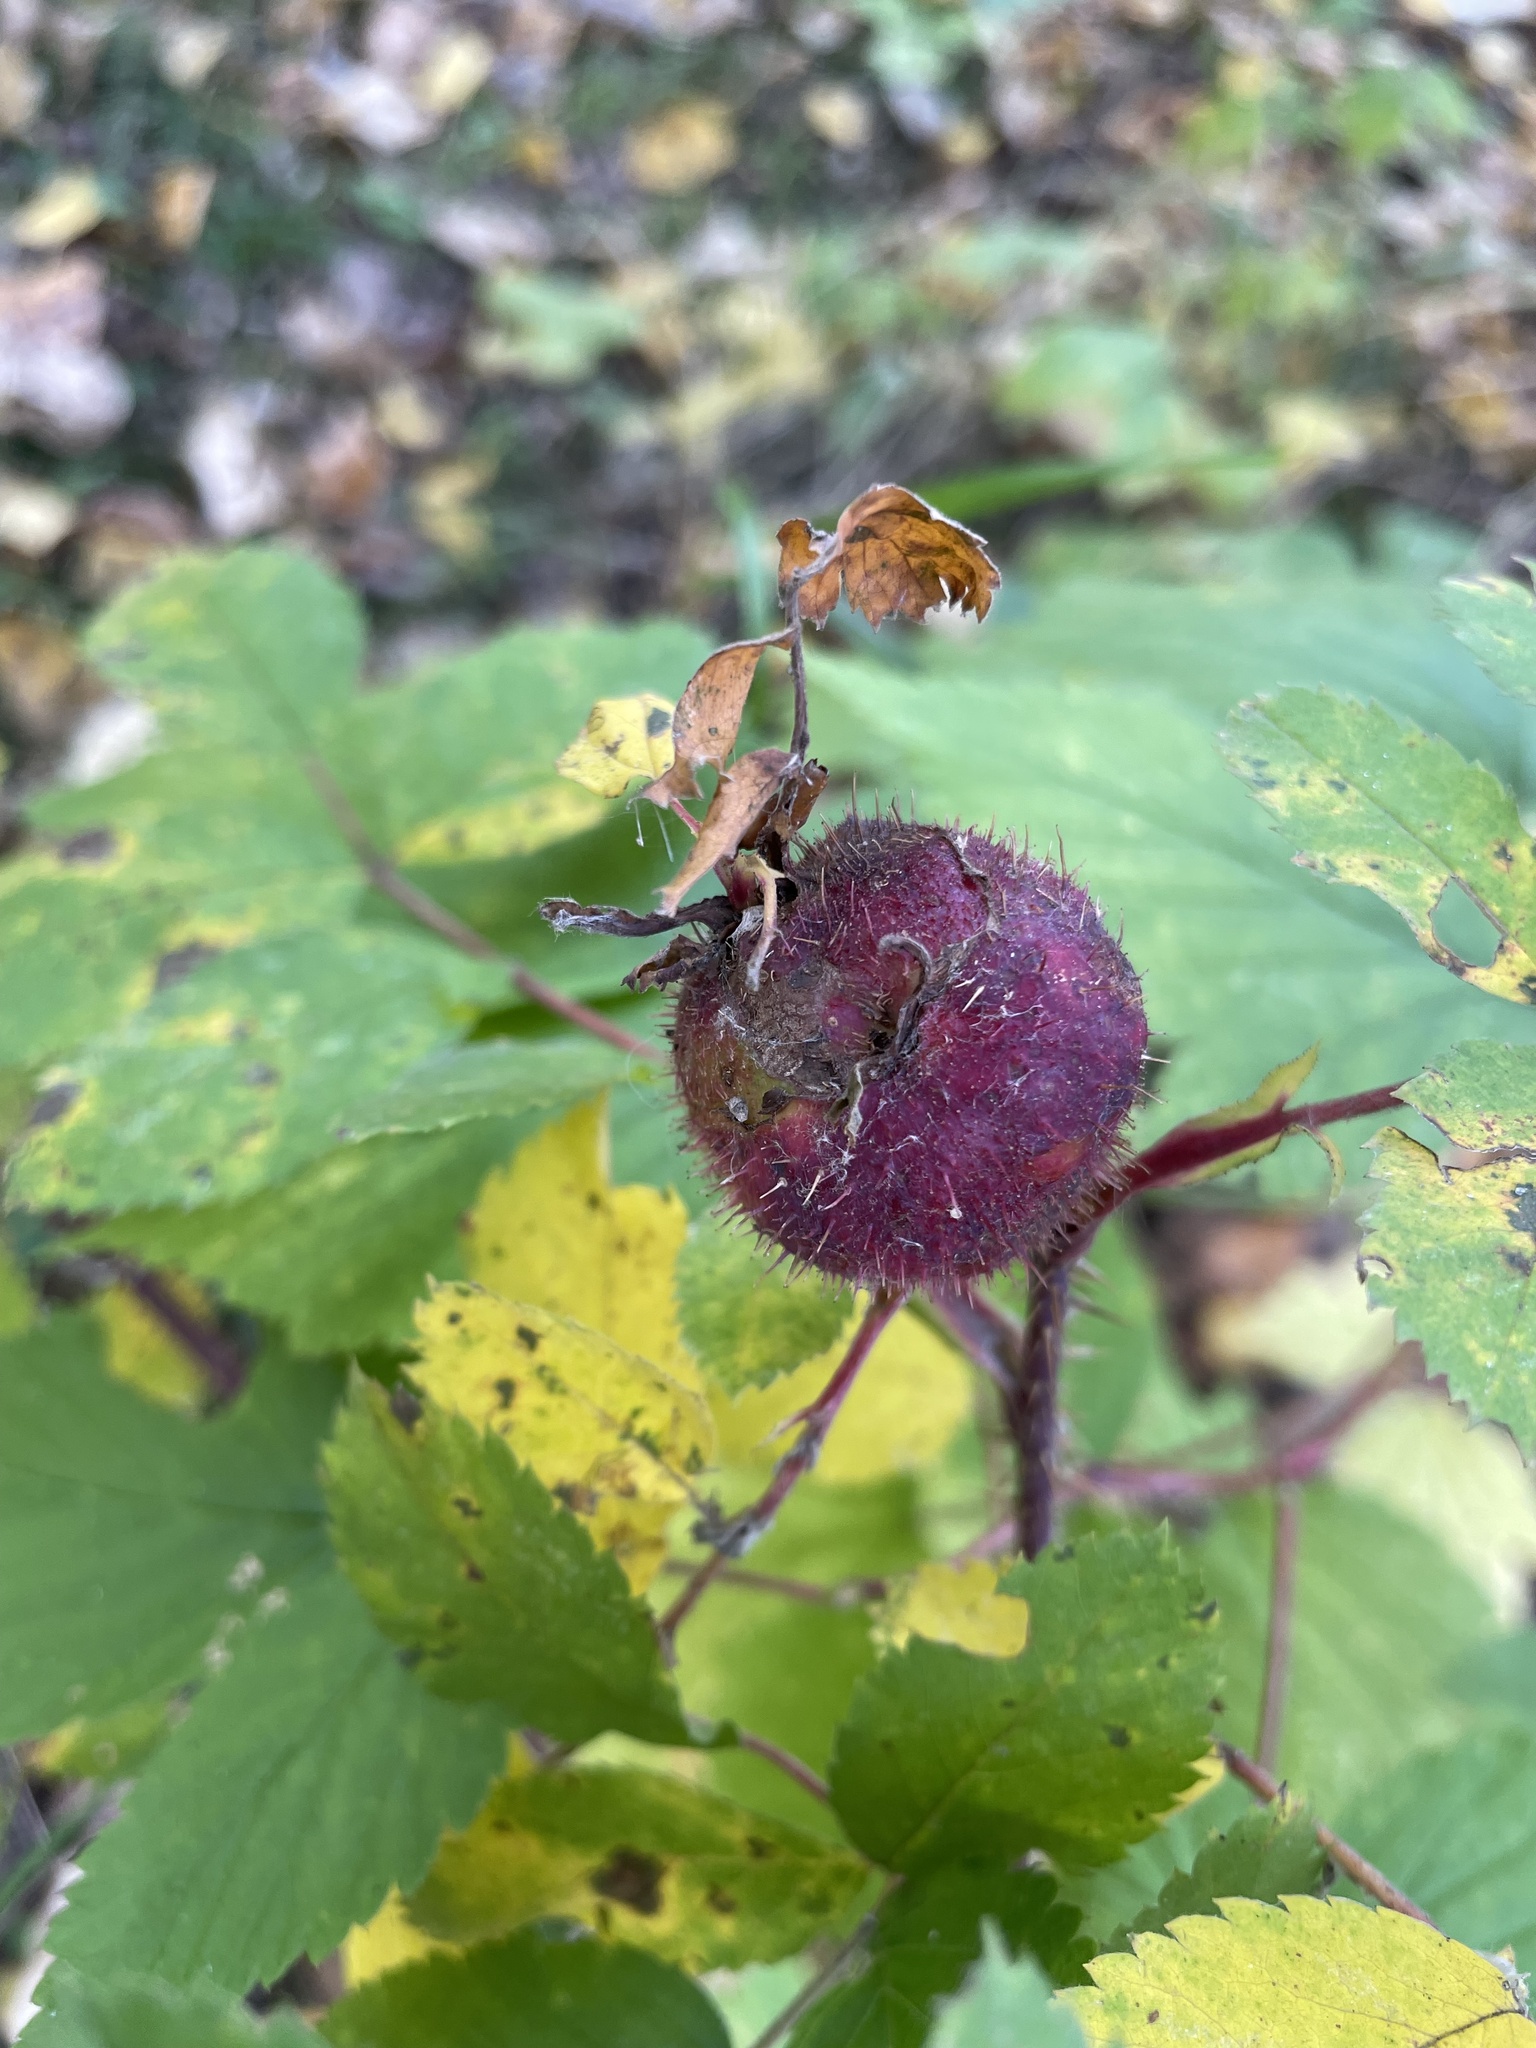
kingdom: Animalia
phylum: Arthropoda
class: Insecta
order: Hymenoptera
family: Cynipidae
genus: Diplolepis
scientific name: Diplolepis spinosa
